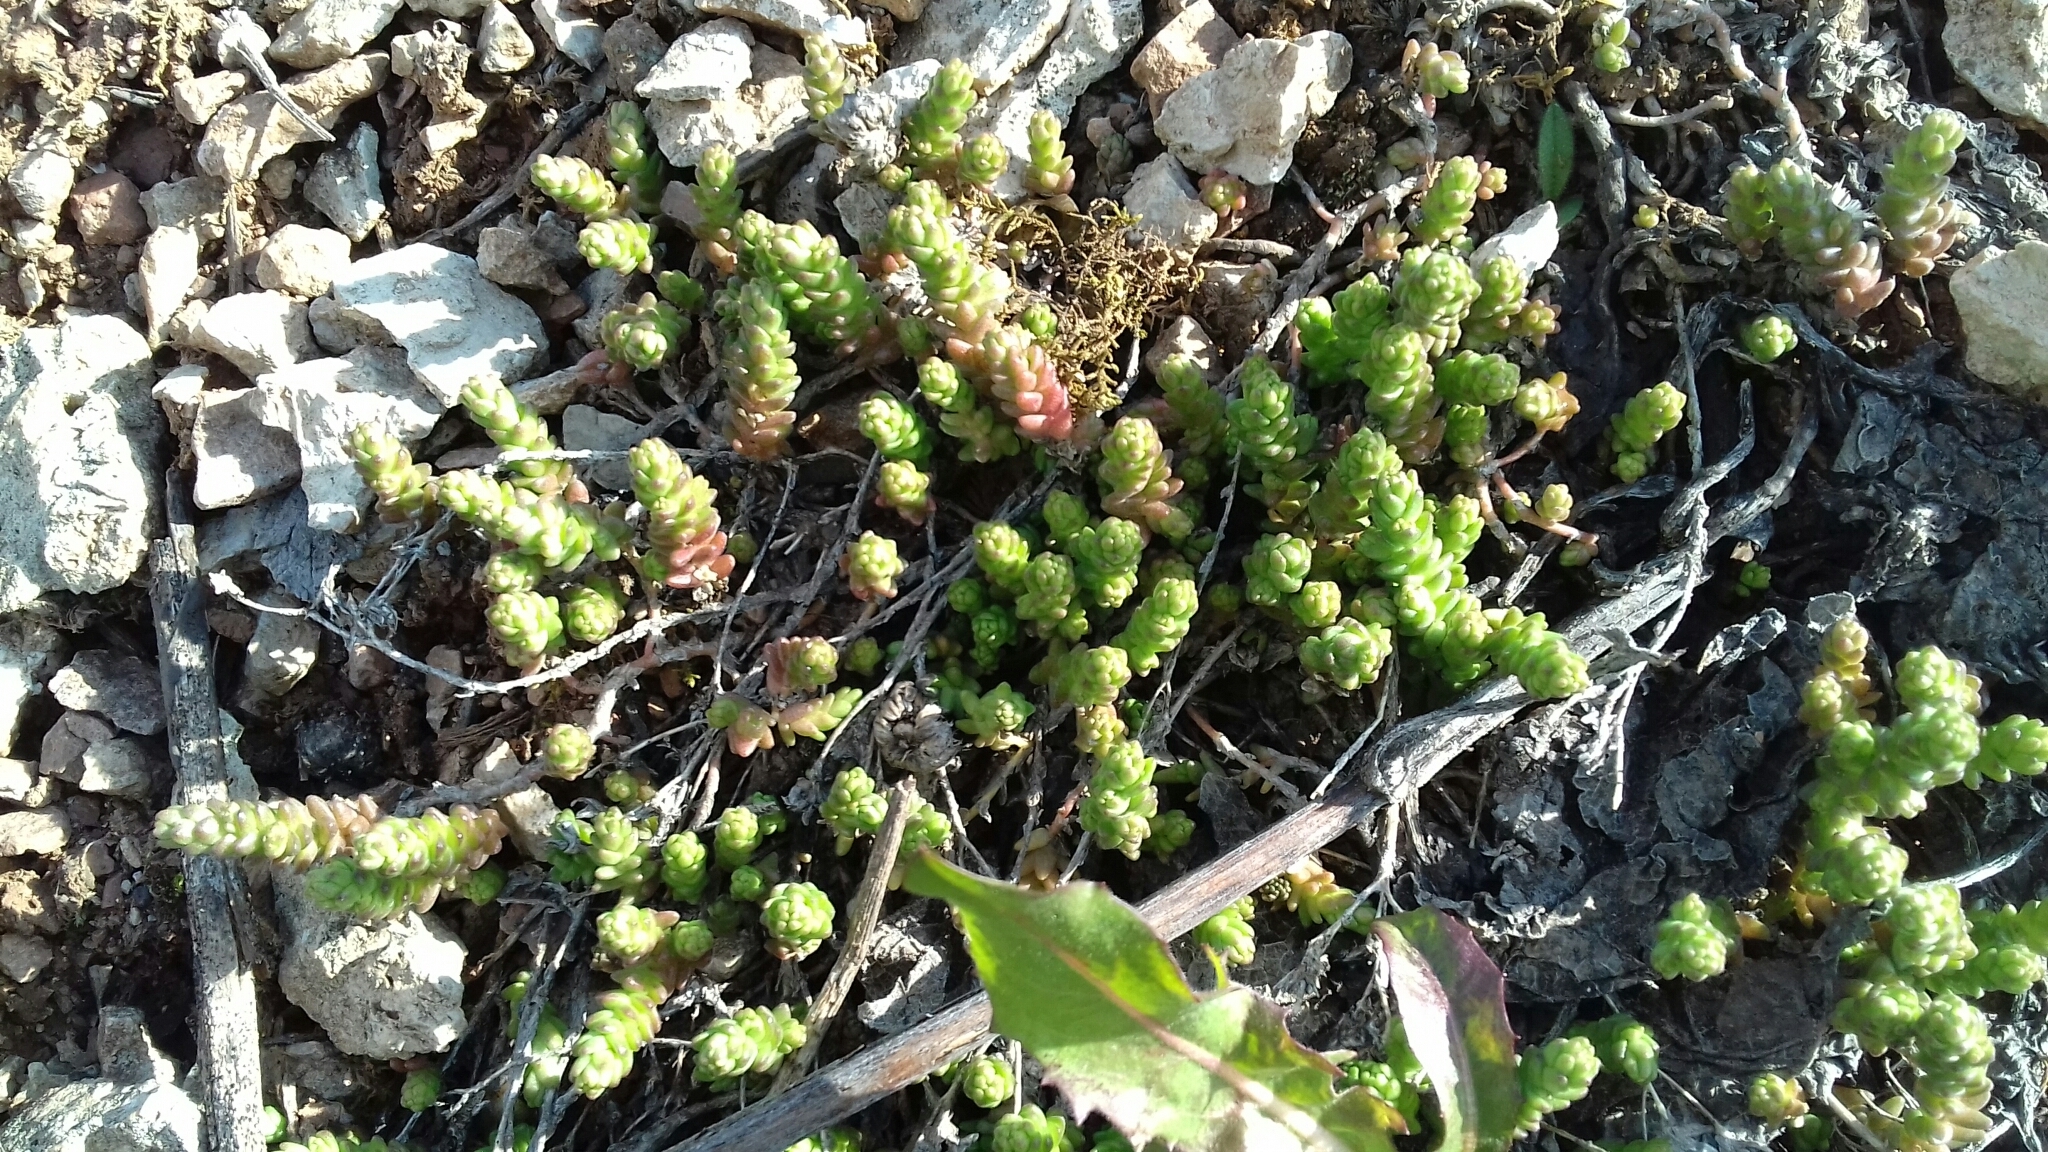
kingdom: Plantae
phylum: Tracheophyta
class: Magnoliopsida
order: Saxifragales
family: Crassulaceae
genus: Sedum
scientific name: Sedum acre
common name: Biting stonecrop
